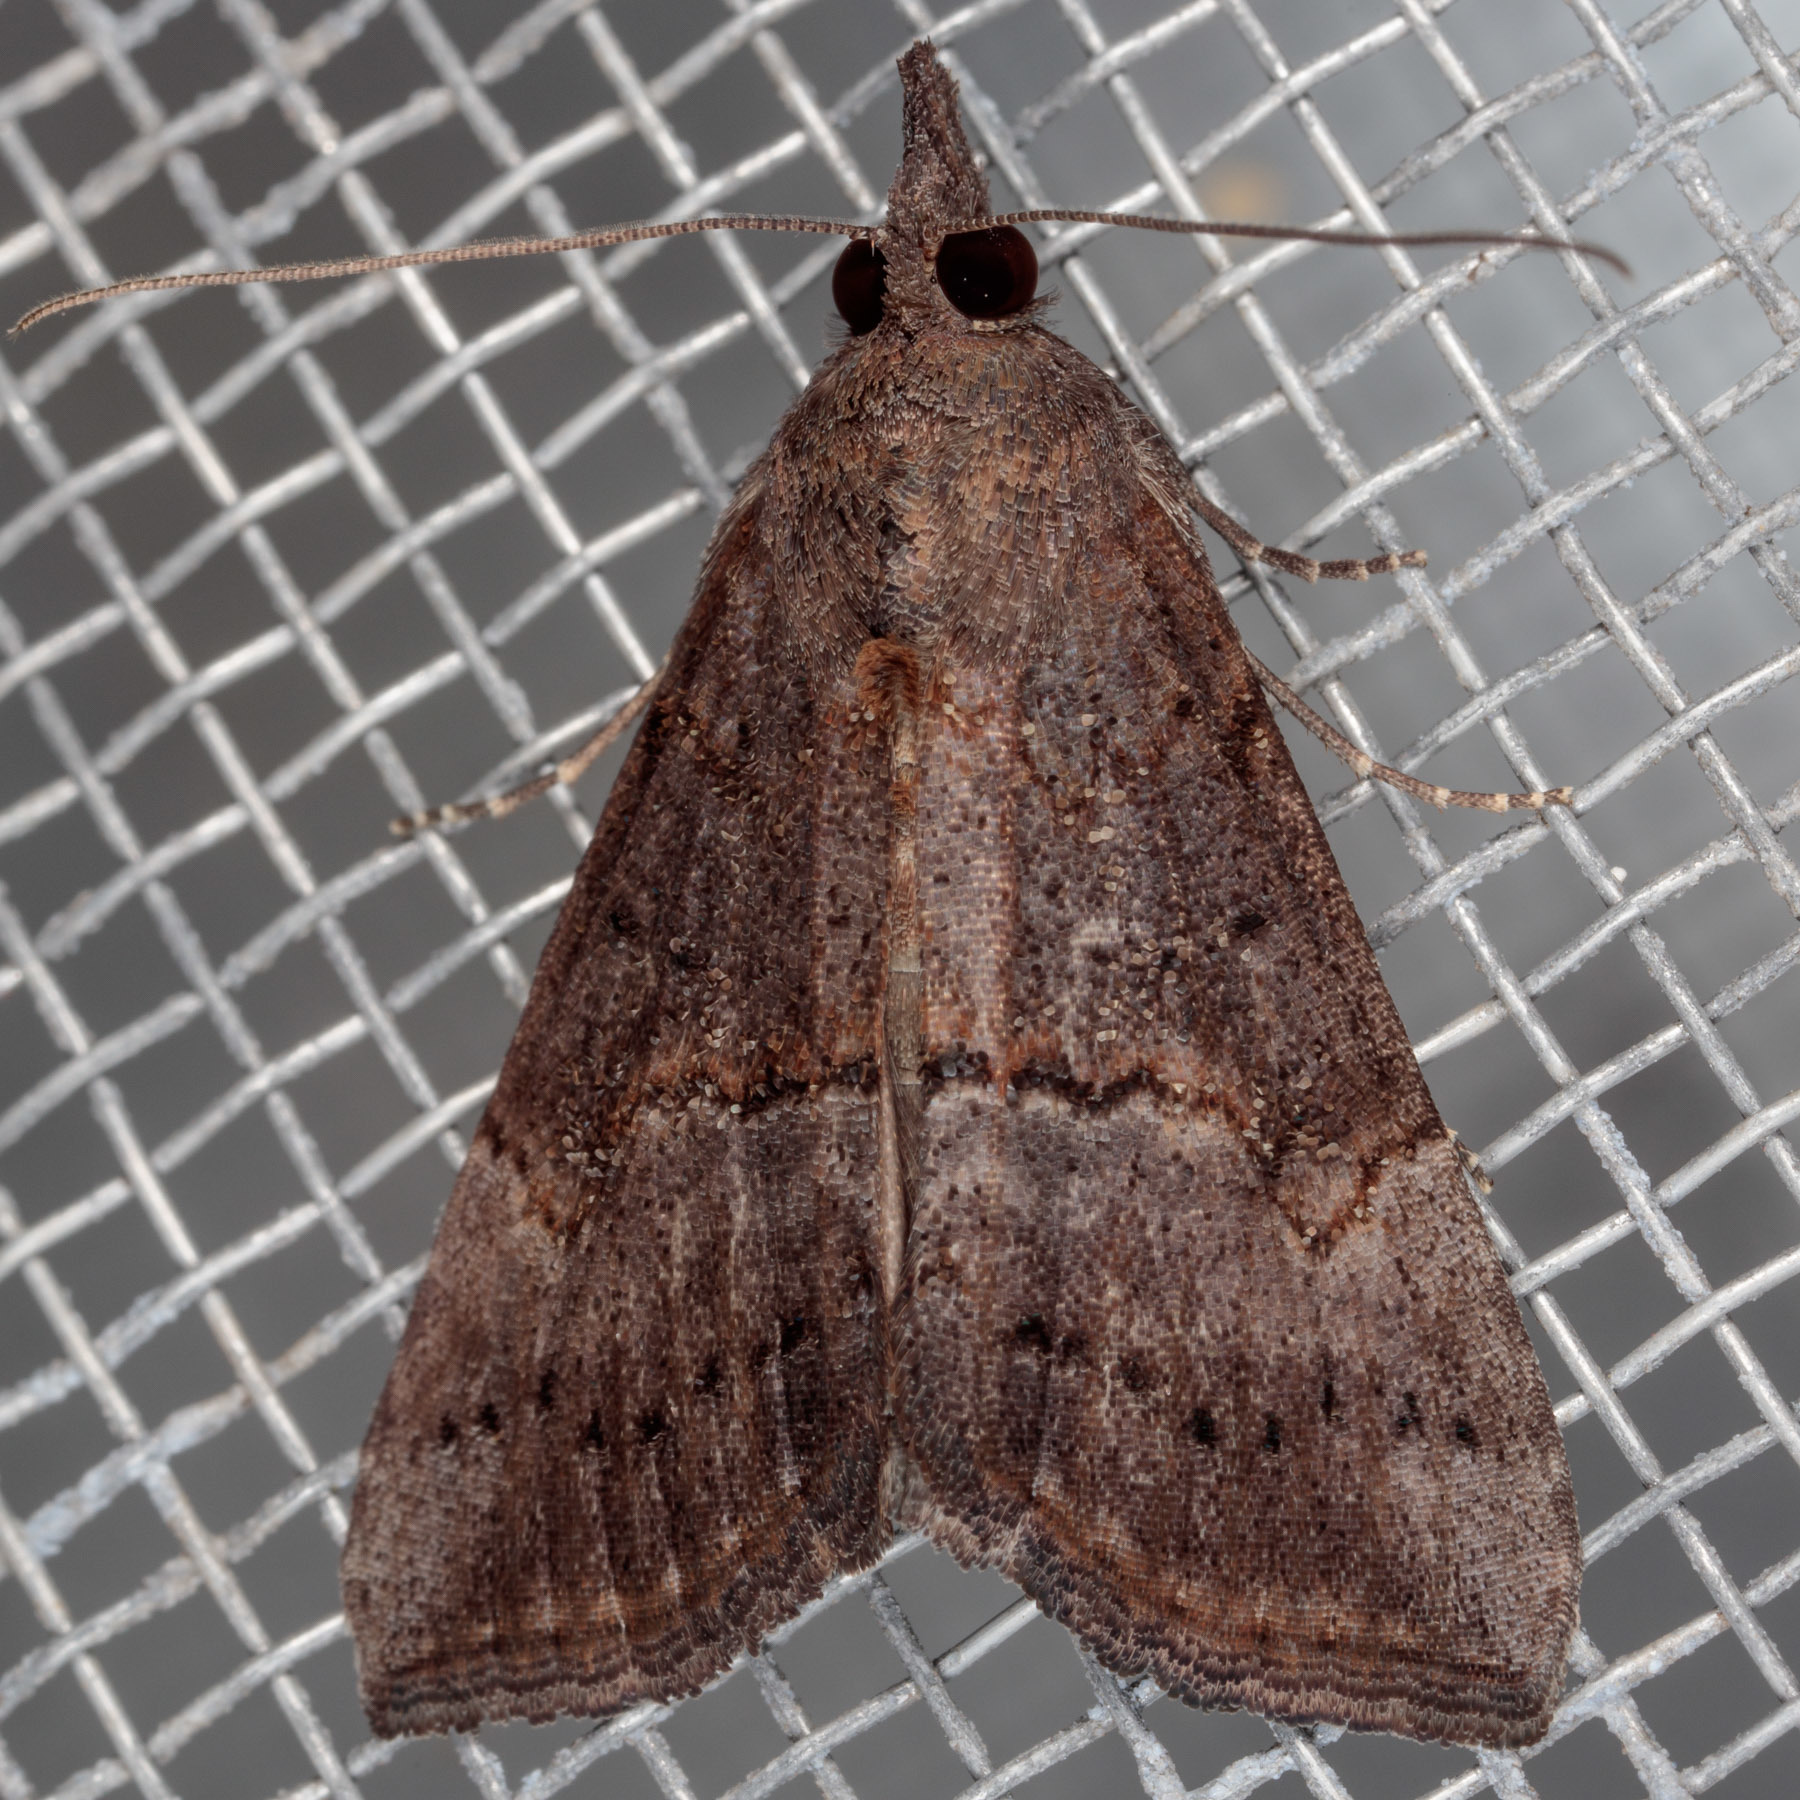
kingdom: Animalia
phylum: Arthropoda
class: Insecta
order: Lepidoptera
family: Erebidae
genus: Hypena
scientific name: Hypena scabra
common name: Green cloverworm
